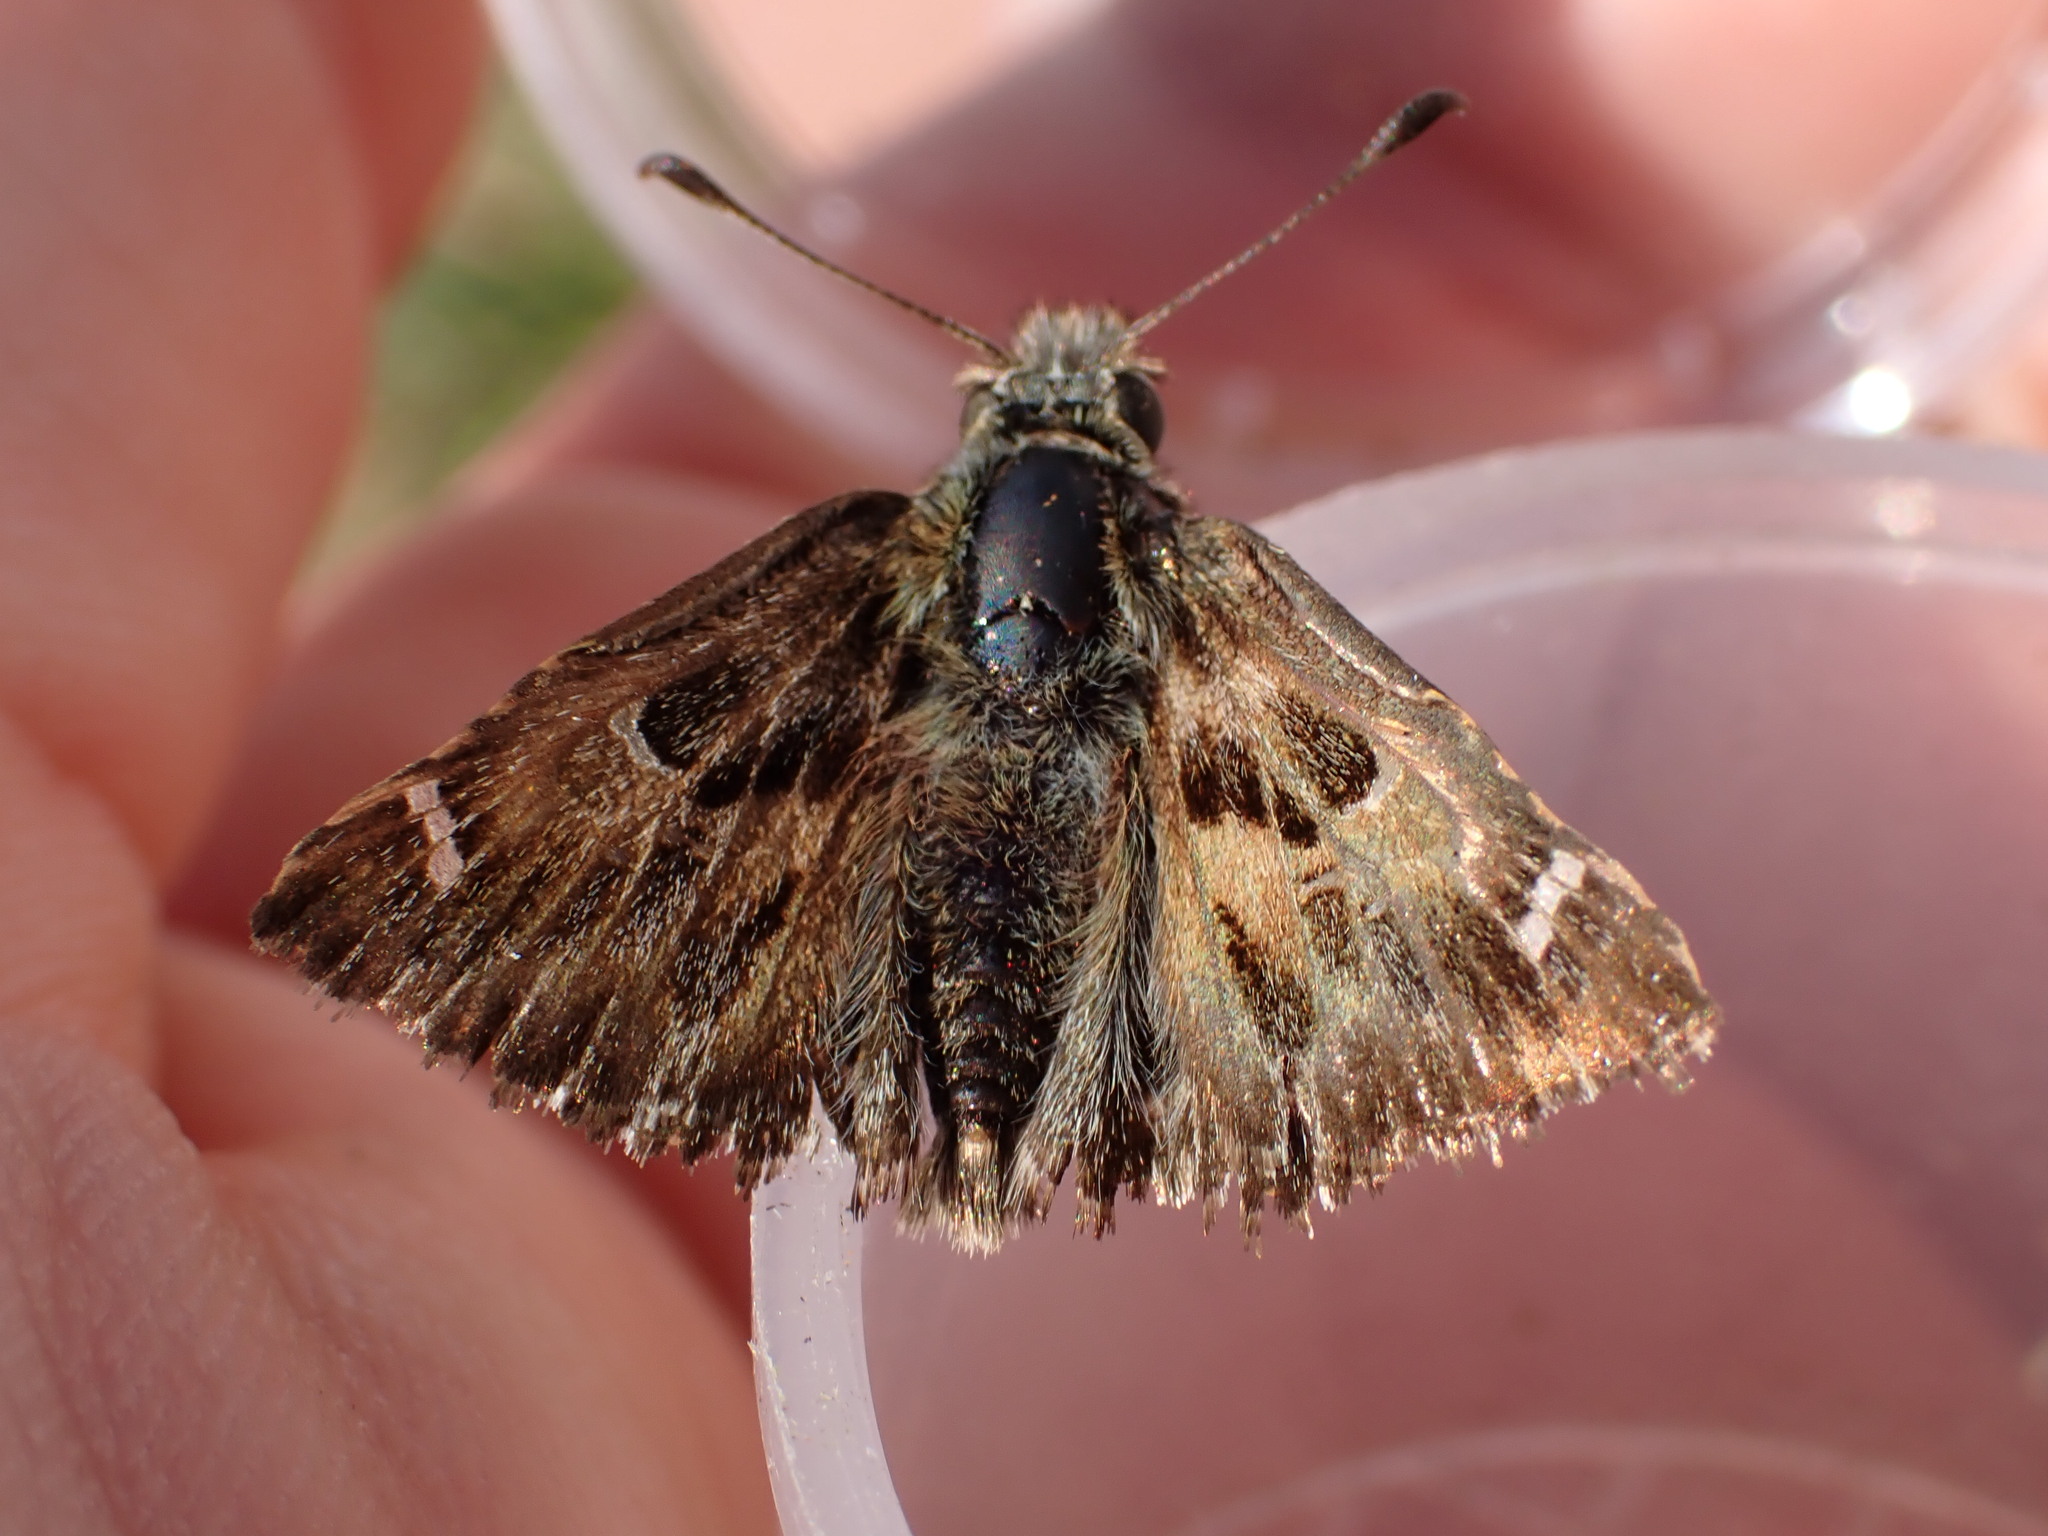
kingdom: Animalia
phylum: Arthropoda
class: Insecta
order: Lepidoptera
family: Hesperiidae
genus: Carcharodus
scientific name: Carcharodus alceae
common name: Mallow skipper
